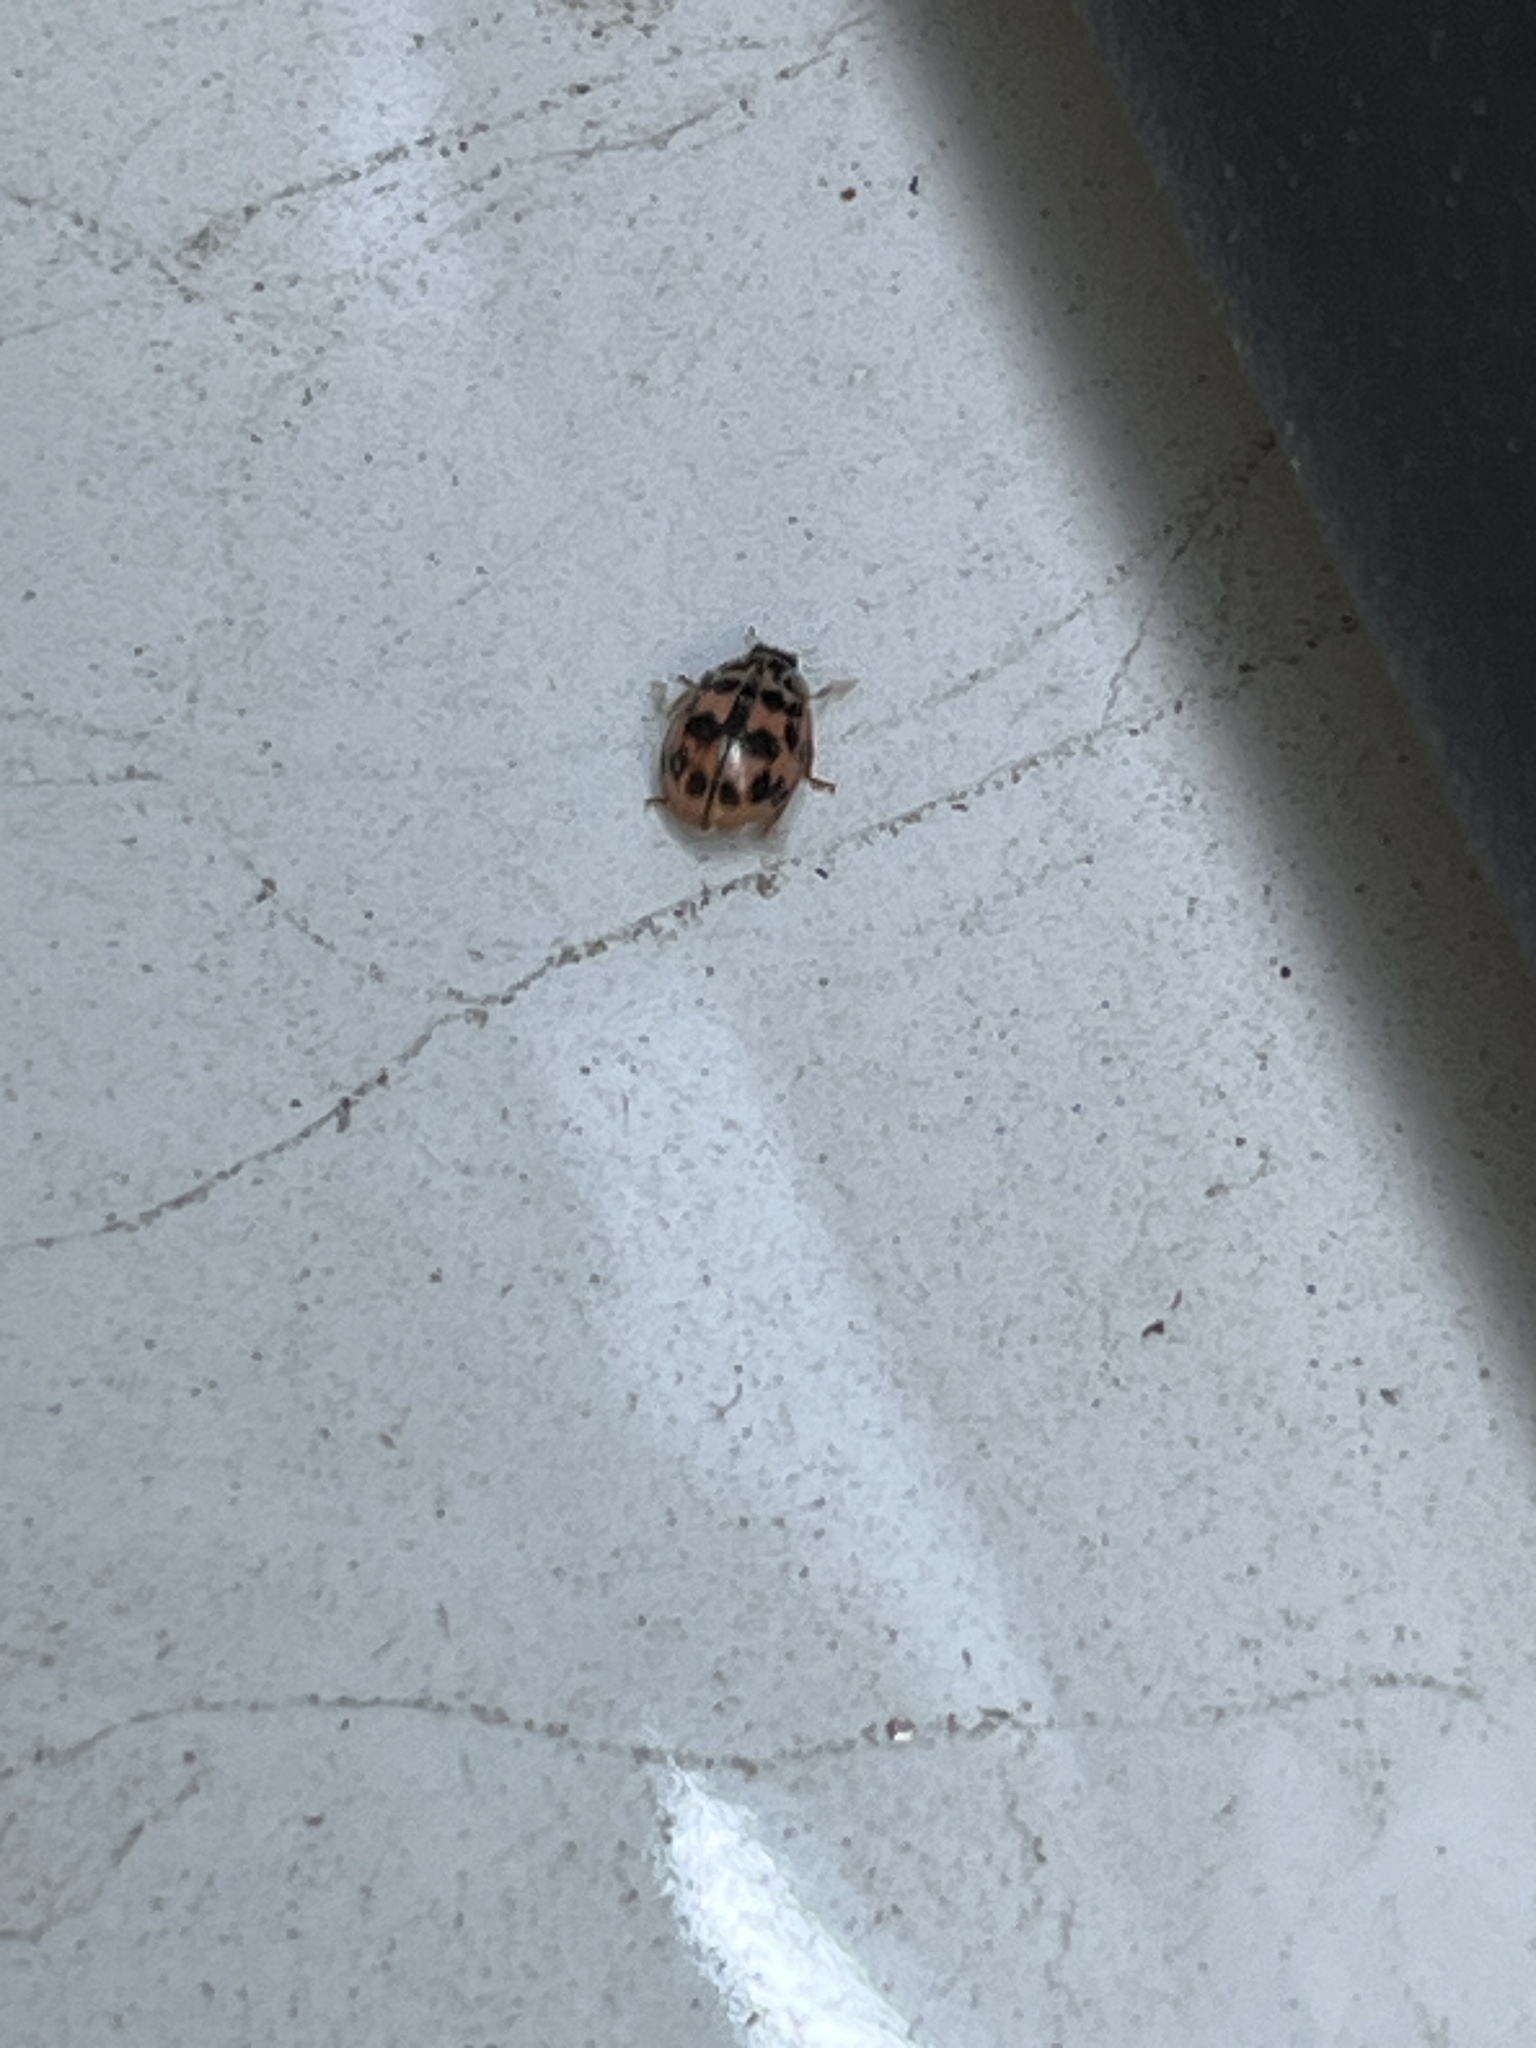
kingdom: Animalia
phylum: Arthropoda
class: Insecta
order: Coleoptera
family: Coccinellidae
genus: Oenopia
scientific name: Oenopia conglobata
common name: Ladybird beetle
